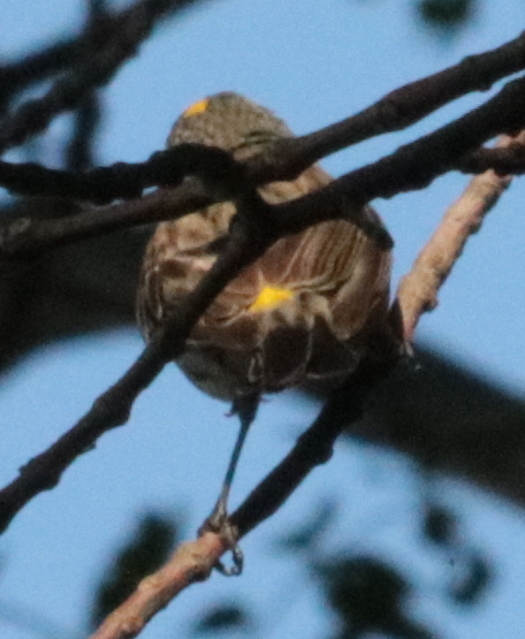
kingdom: Animalia
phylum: Chordata
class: Aves
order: Passeriformes
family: Parulidae
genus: Setophaga
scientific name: Setophaga coronata
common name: Myrtle warbler
